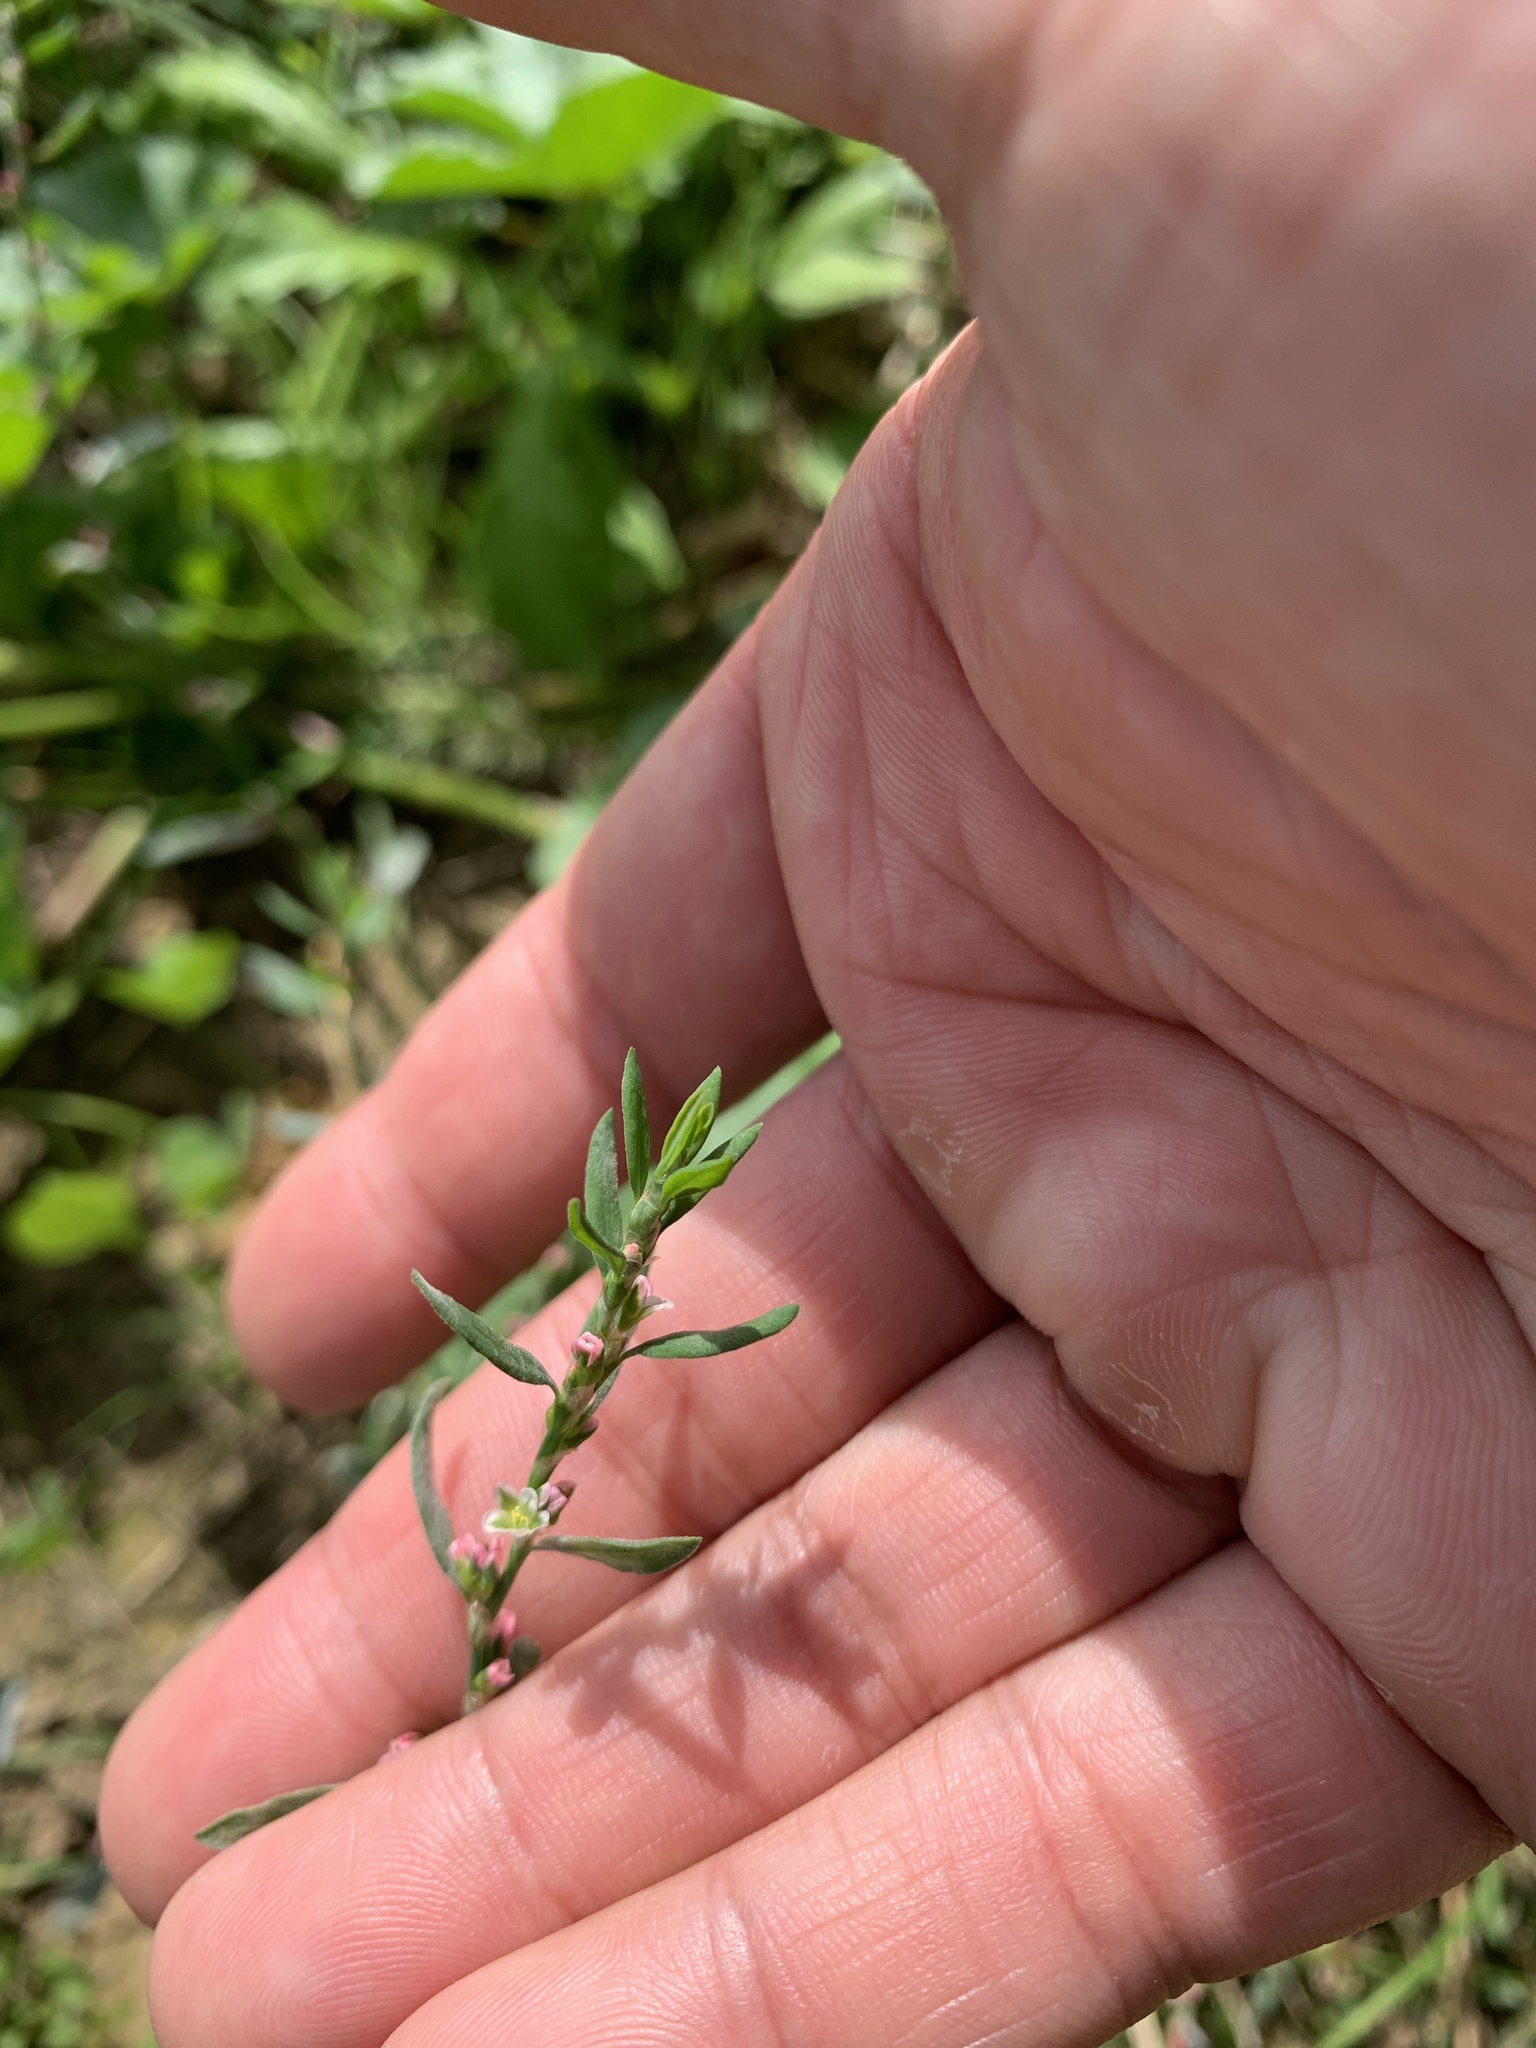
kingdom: Plantae
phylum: Tracheophyta
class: Magnoliopsida
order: Caryophyllales
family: Polygonaceae
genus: Polygonum
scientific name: Polygonum aviculare
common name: Prostrate knotweed
